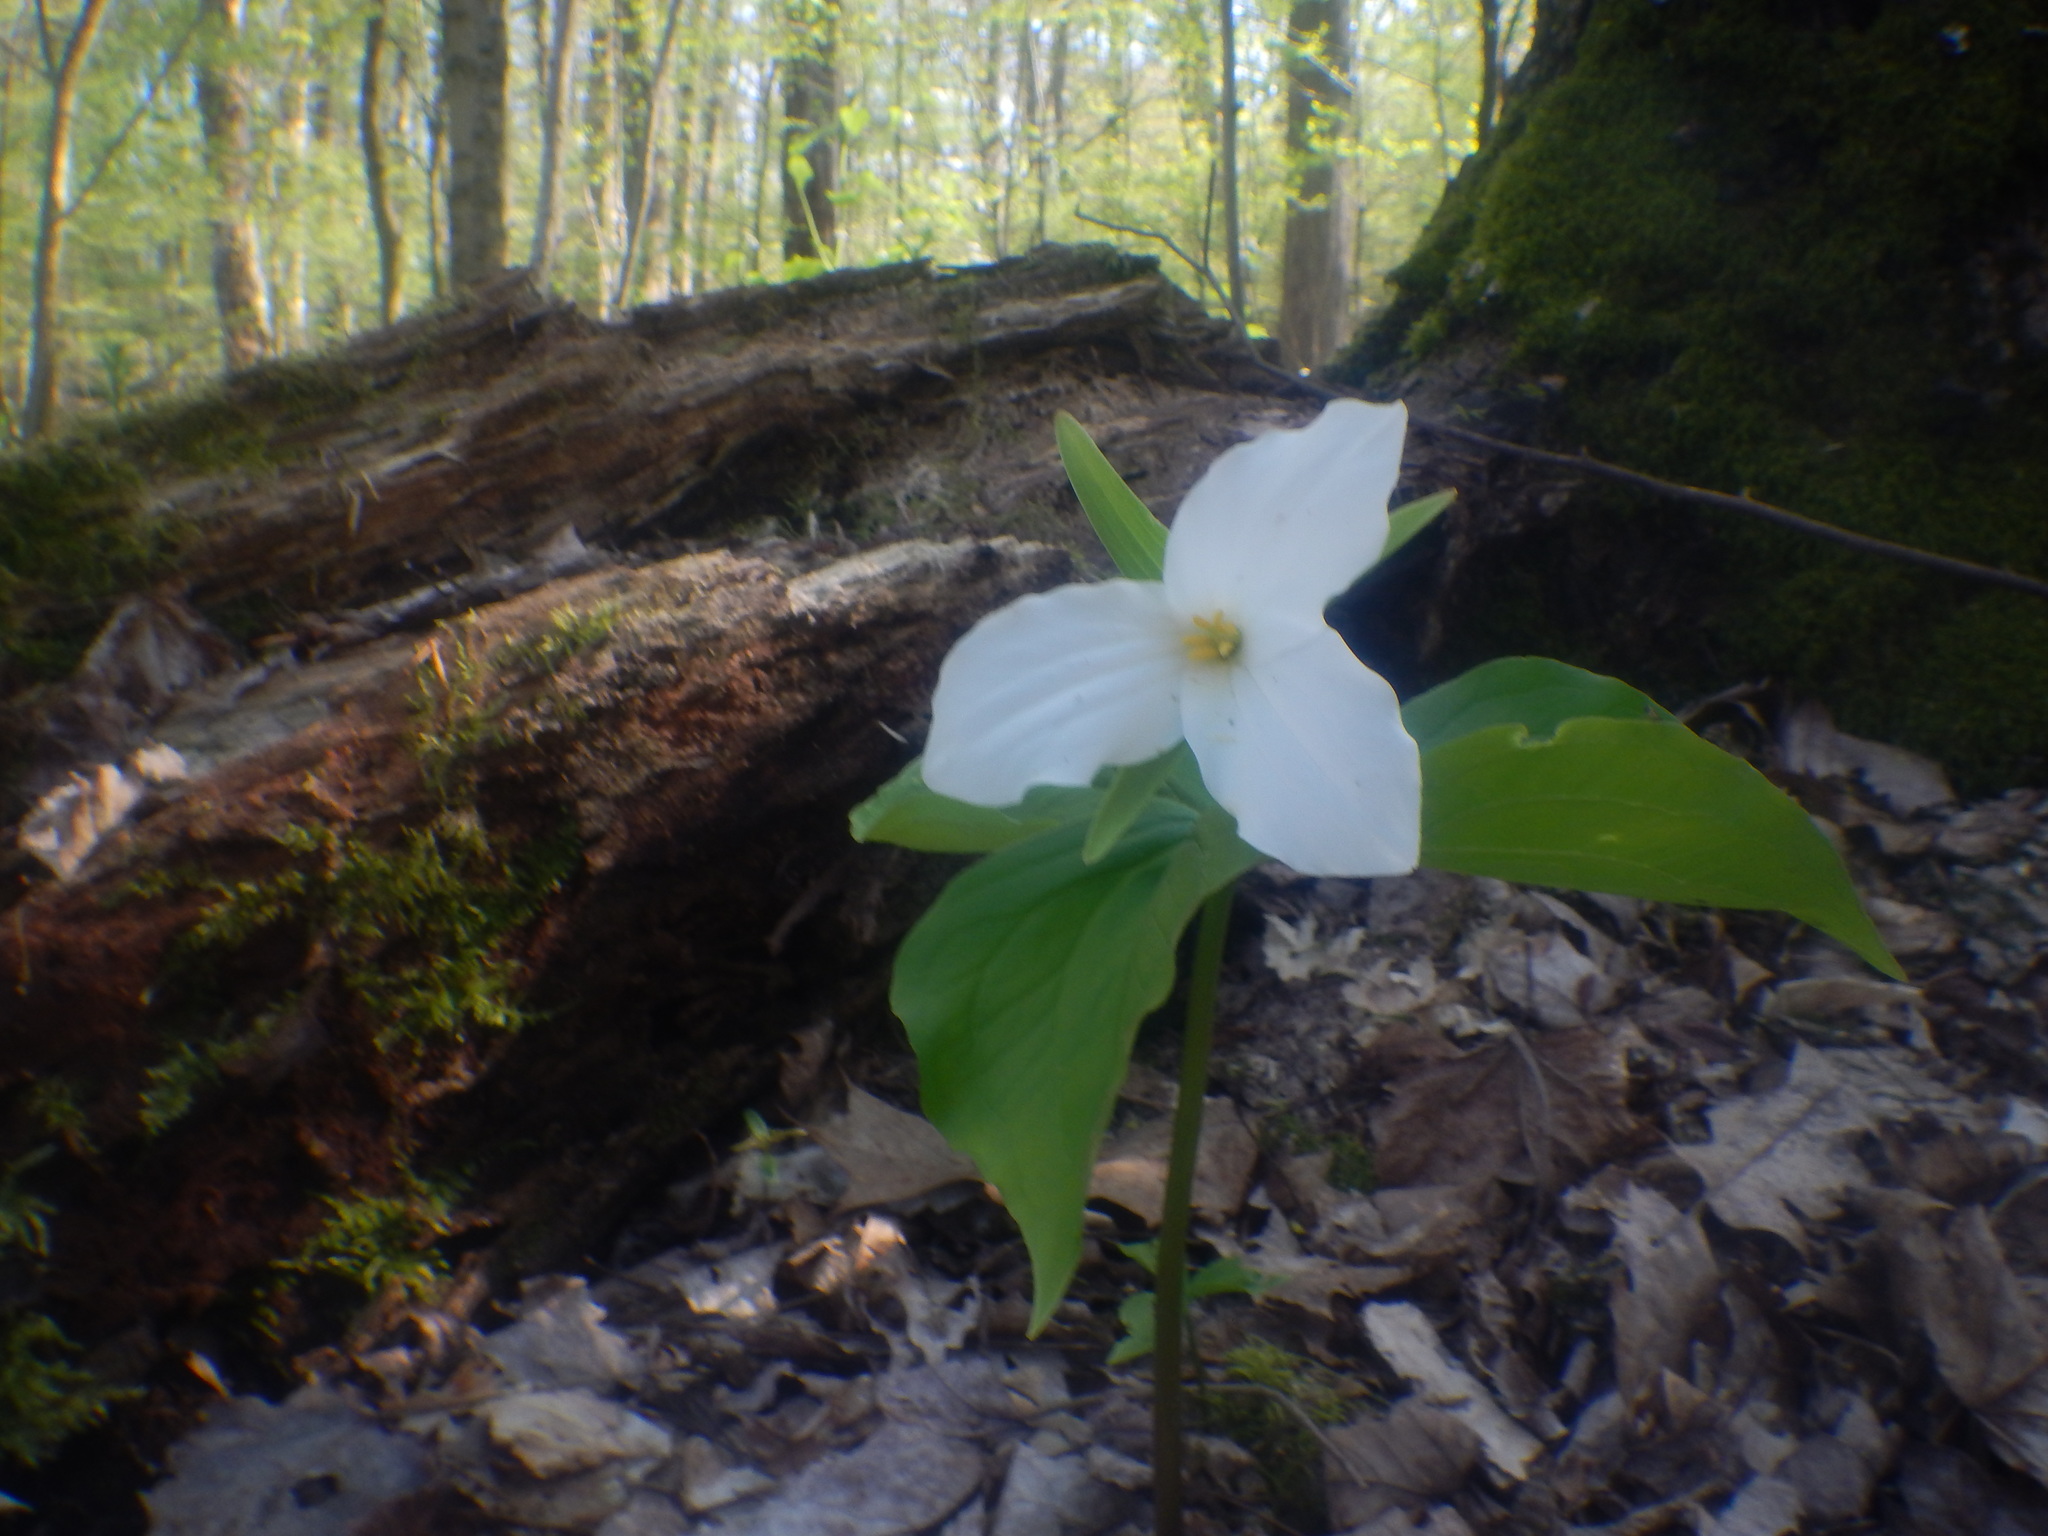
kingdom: Plantae
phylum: Tracheophyta
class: Liliopsida
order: Liliales
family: Melanthiaceae
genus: Trillium
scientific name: Trillium grandiflorum
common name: Great white trillium
